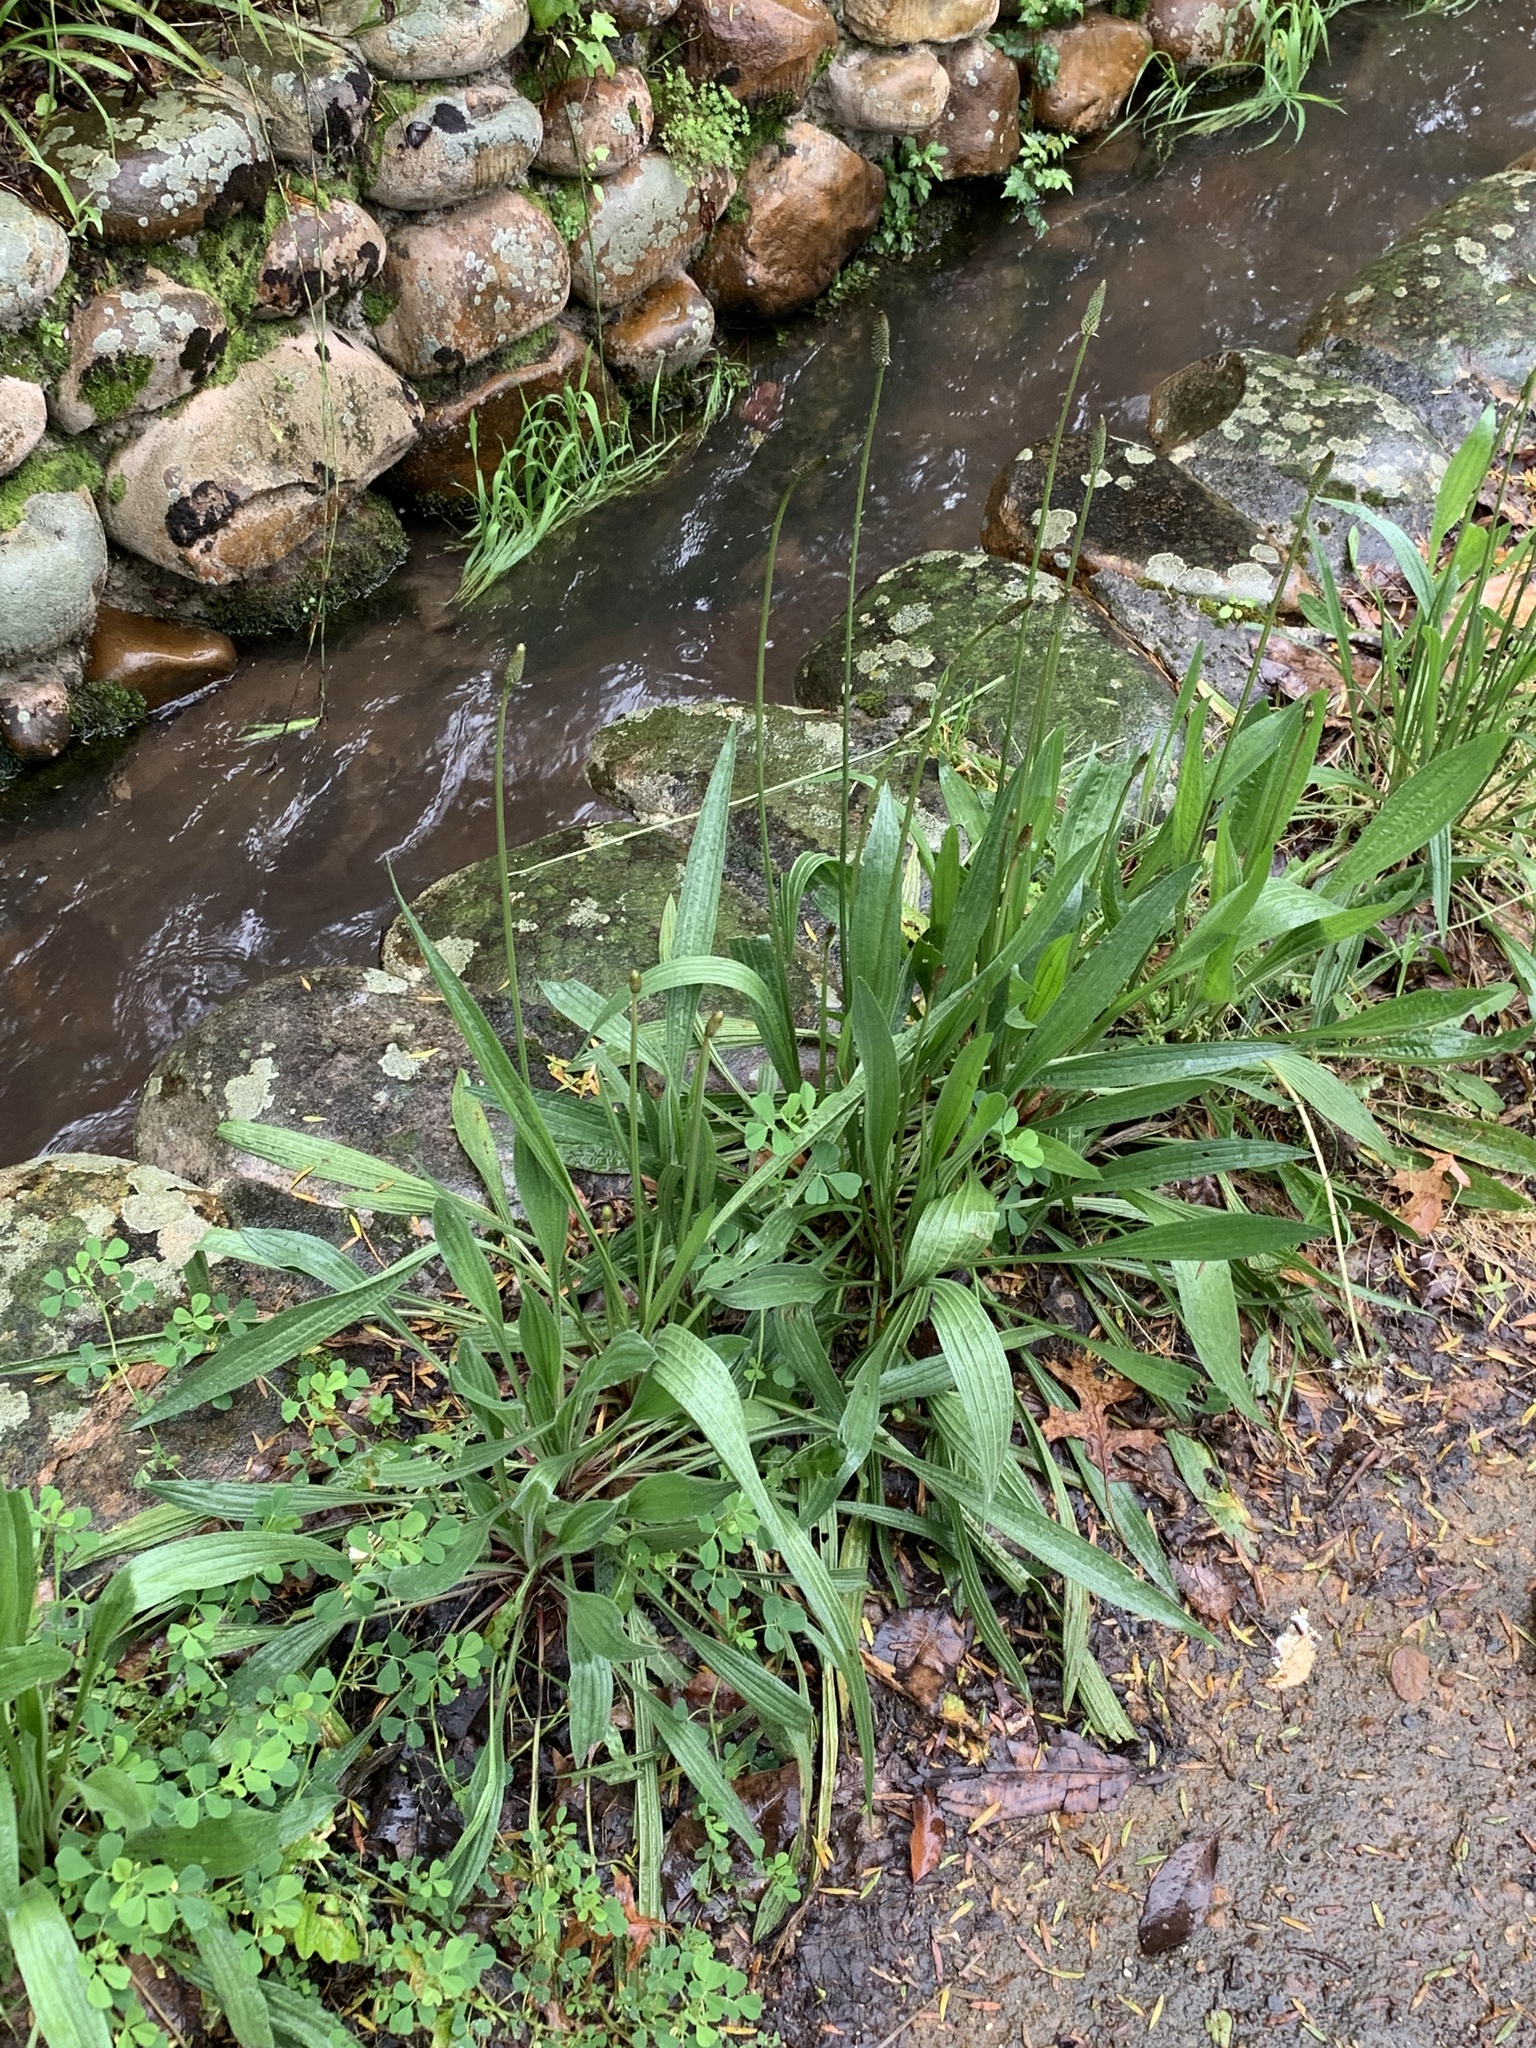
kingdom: Plantae
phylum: Tracheophyta
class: Magnoliopsida
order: Lamiales
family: Plantaginaceae
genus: Plantago
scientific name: Plantago lanceolata
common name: Ribwort plantain
